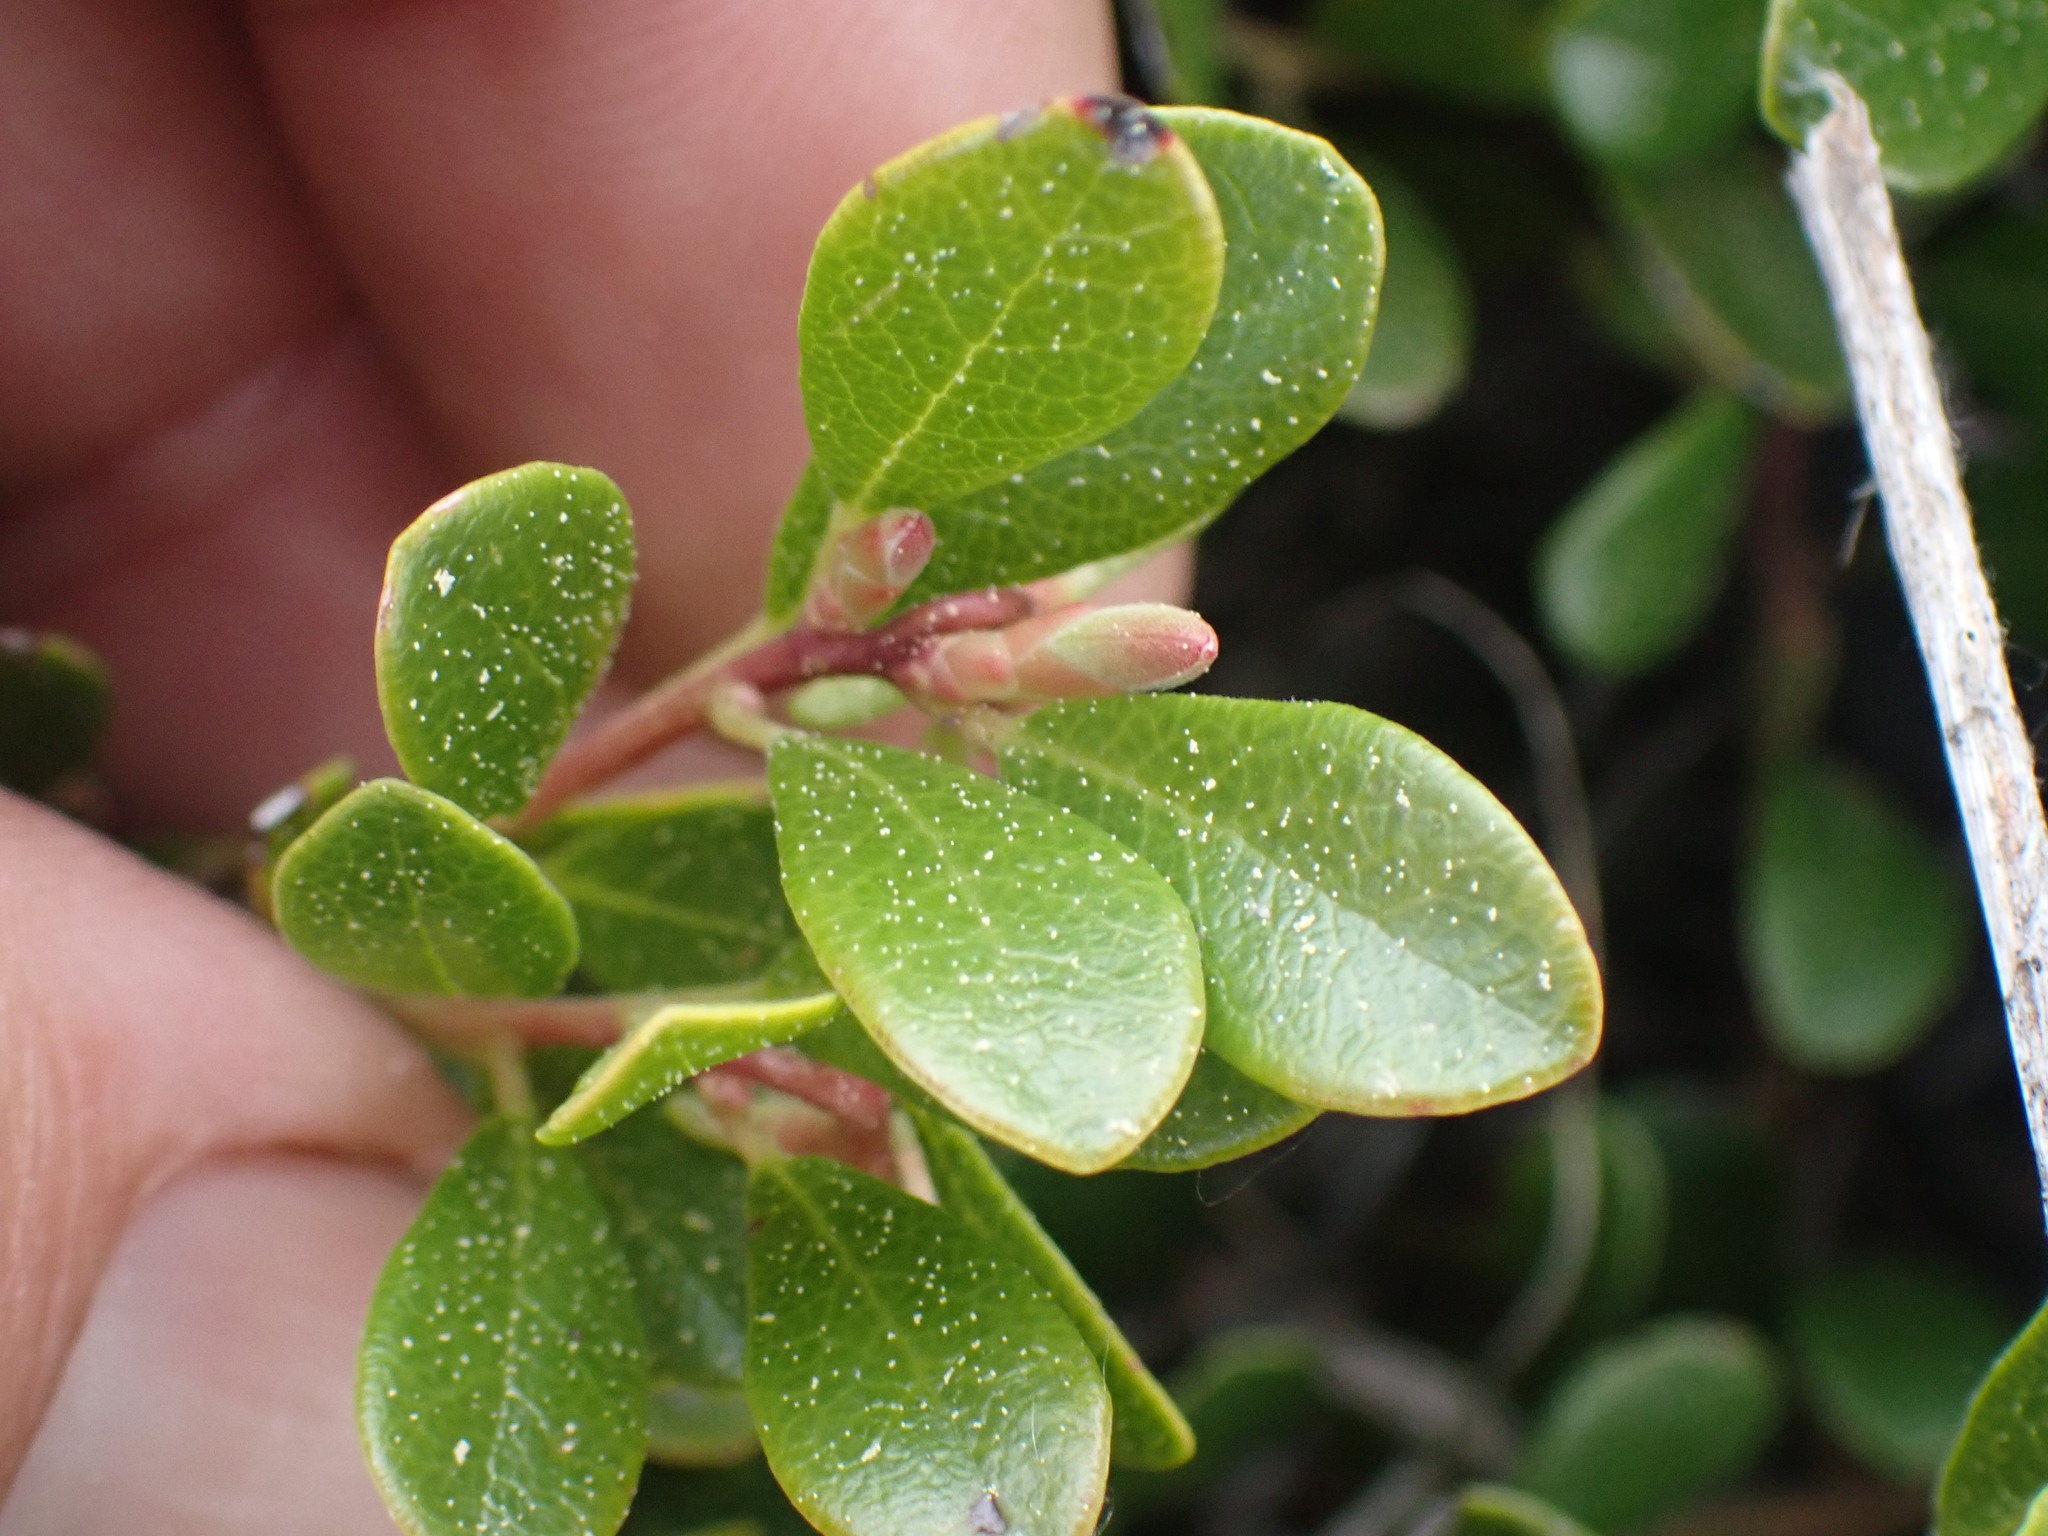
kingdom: Plantae
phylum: Tracheophyta
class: Magnoliopsida
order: Ericales
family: Ericaceae
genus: Arctostaphylos
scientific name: Arctostaphylos uva-ursi
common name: Bearberry
